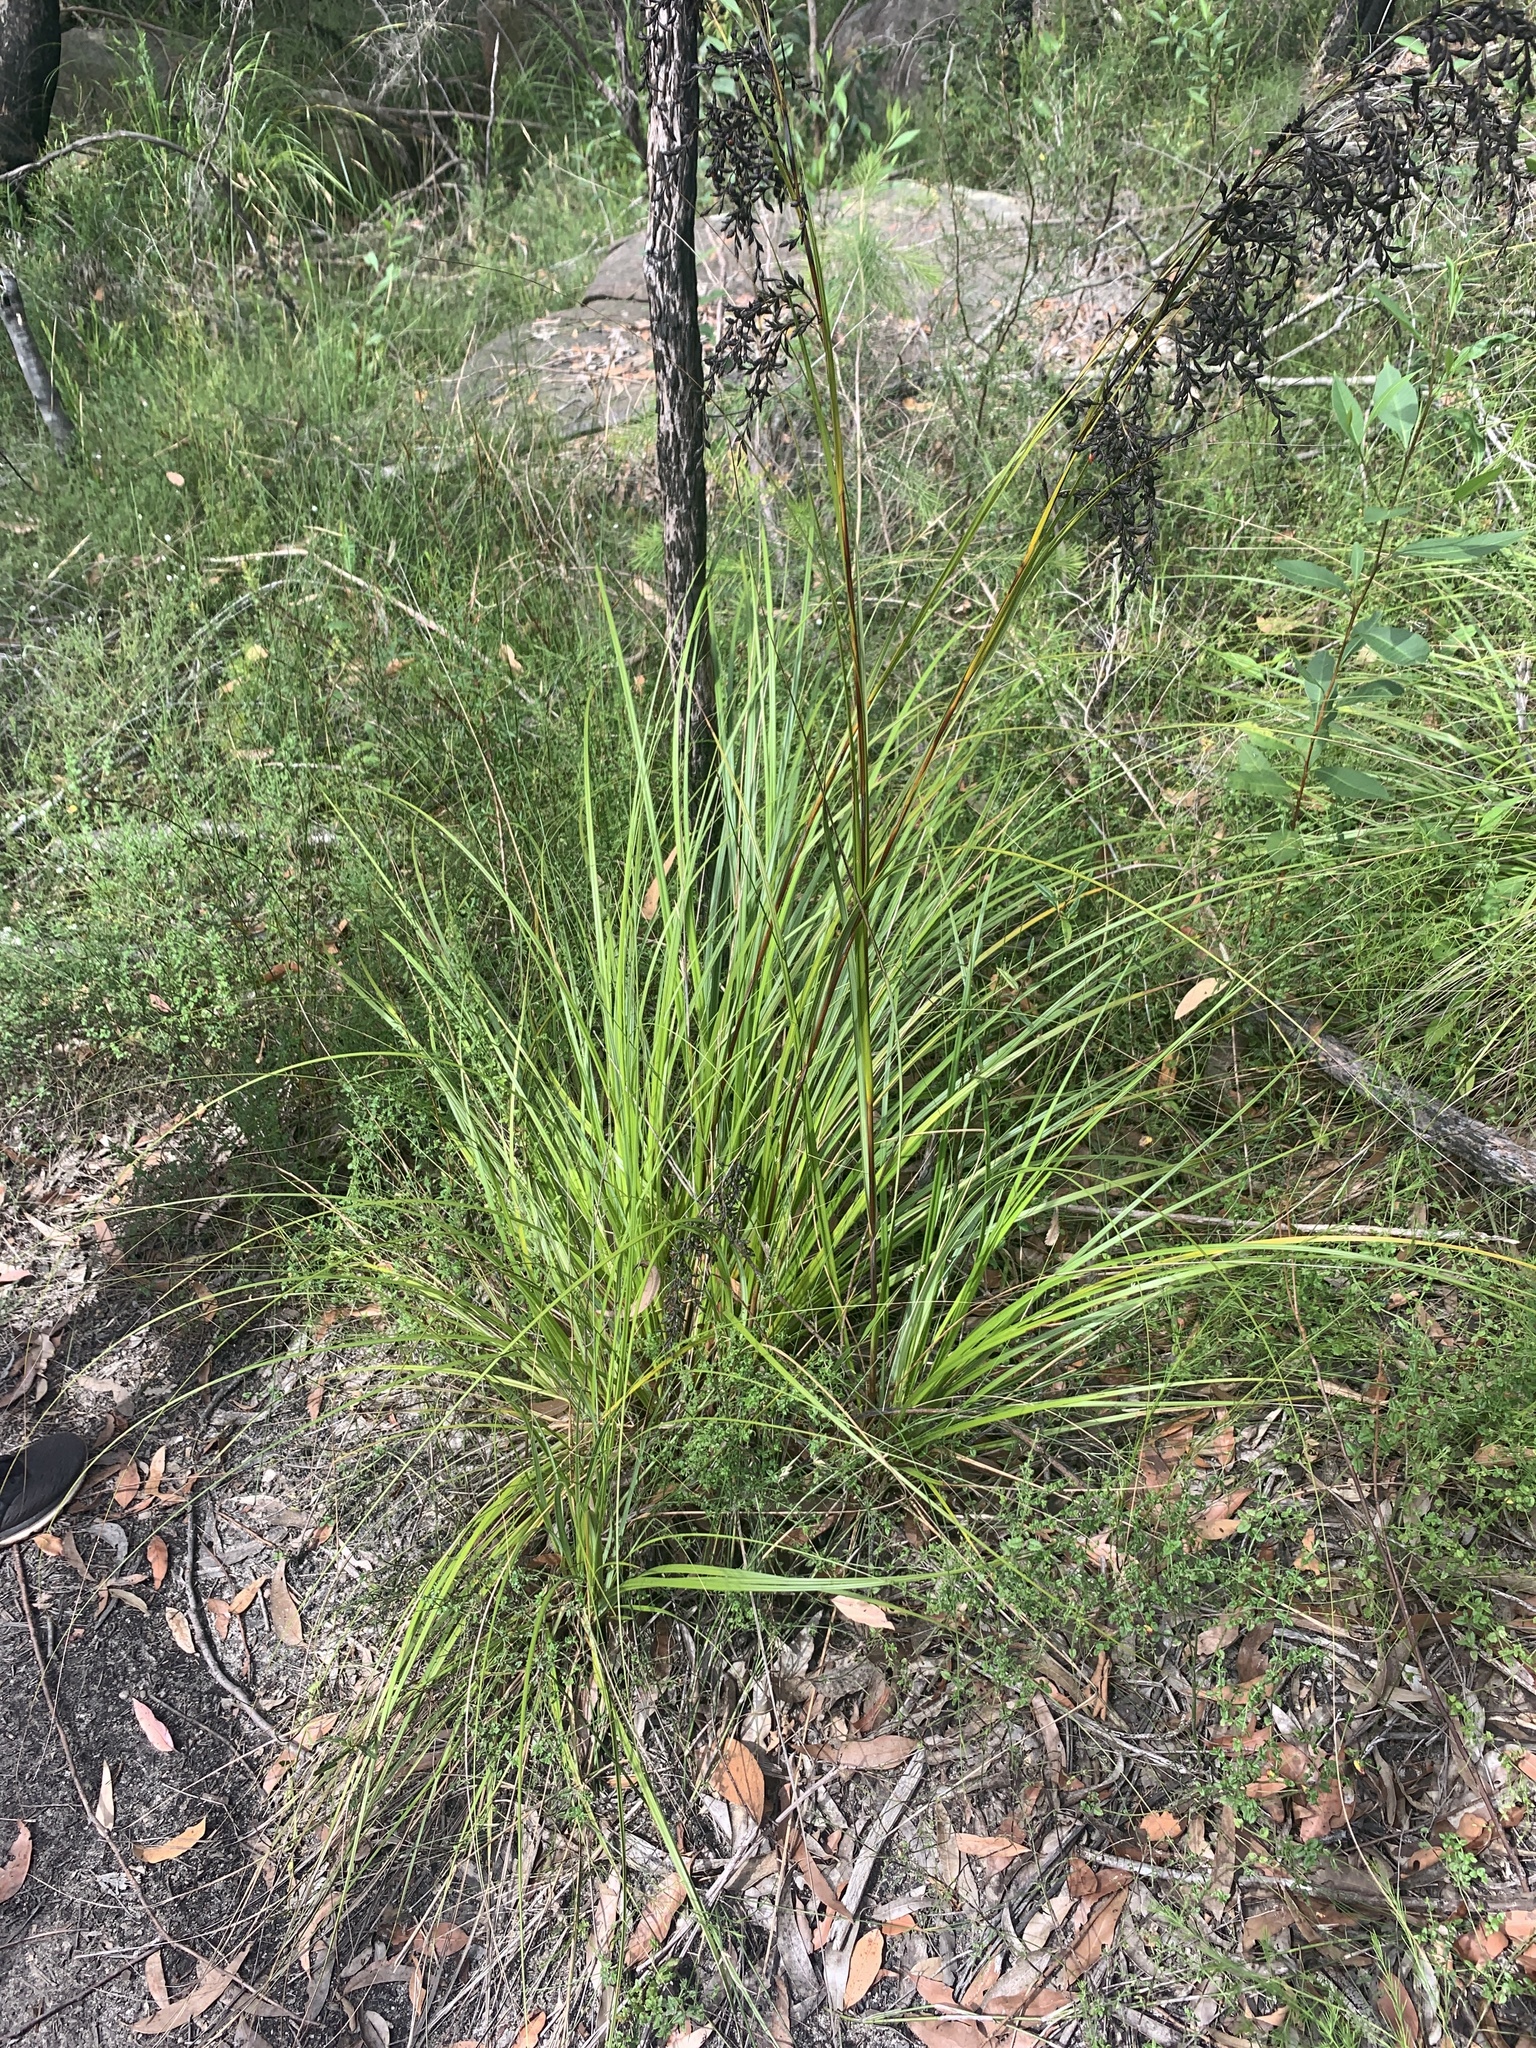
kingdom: Plantae
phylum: Tracheophyta
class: Liliopsida
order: Poales
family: Cyperaceae
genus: Gahnia
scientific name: Gahnia sieberiana
